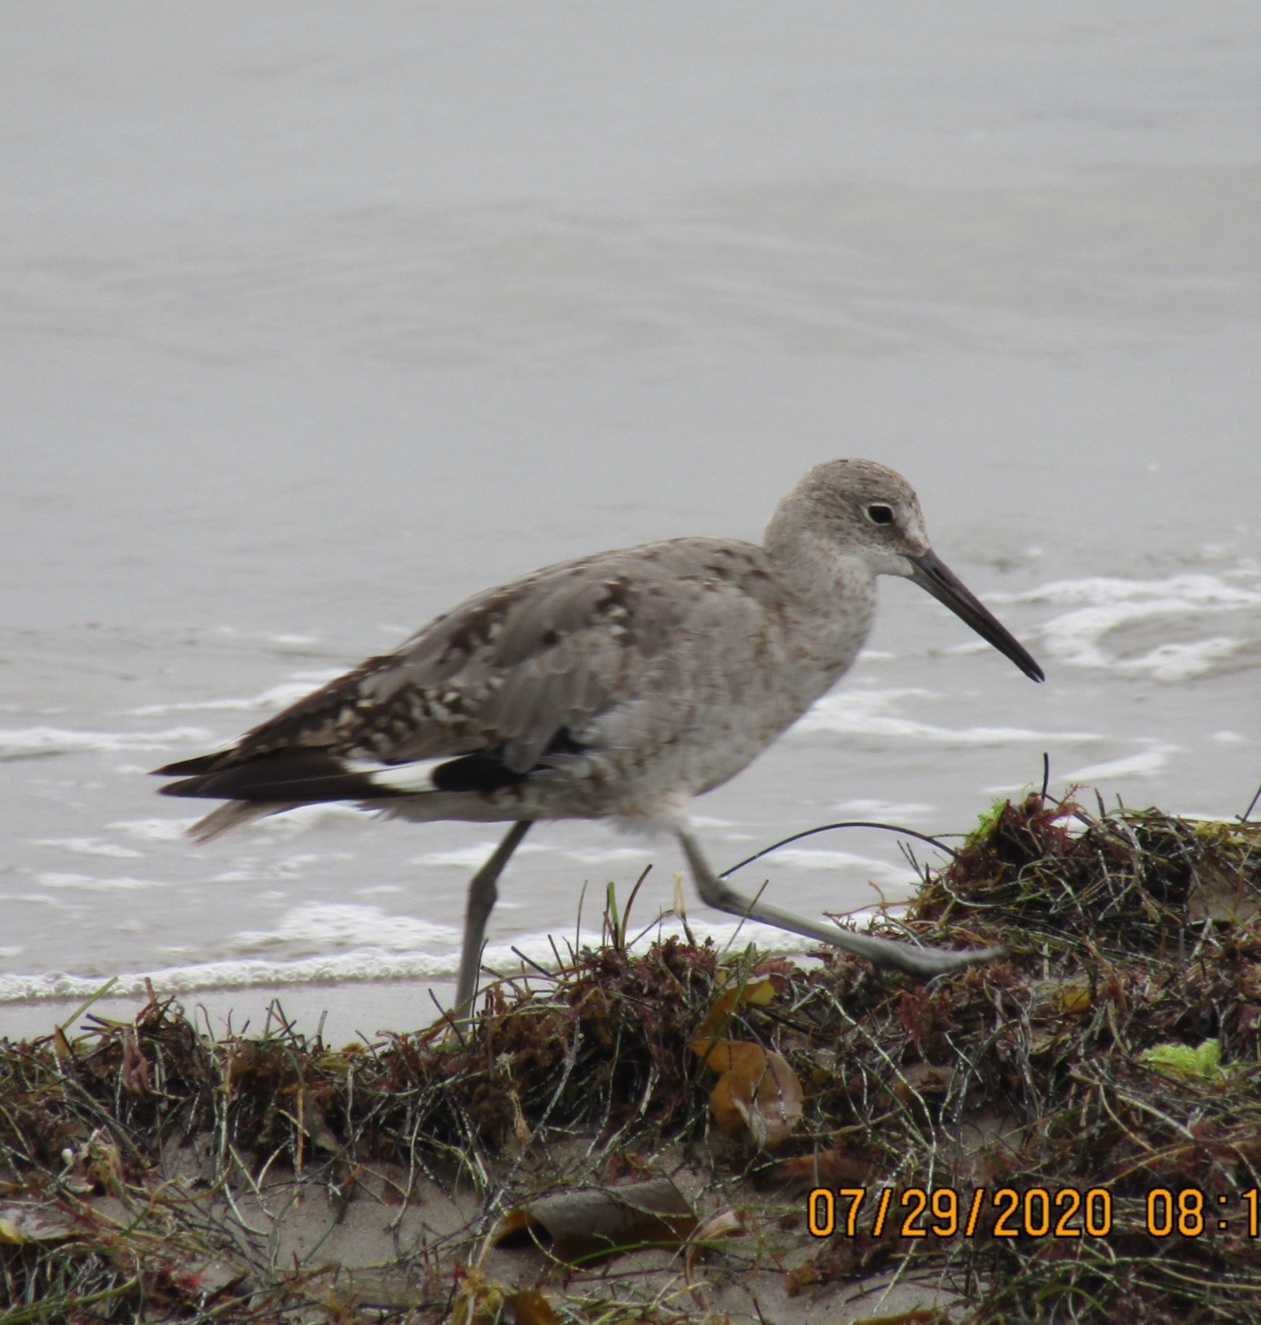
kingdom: Animalia
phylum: Chordata
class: Aves
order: Charadriiformes
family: Scolopacidae
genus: Tringa
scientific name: Tringa semipalmata
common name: Willet
